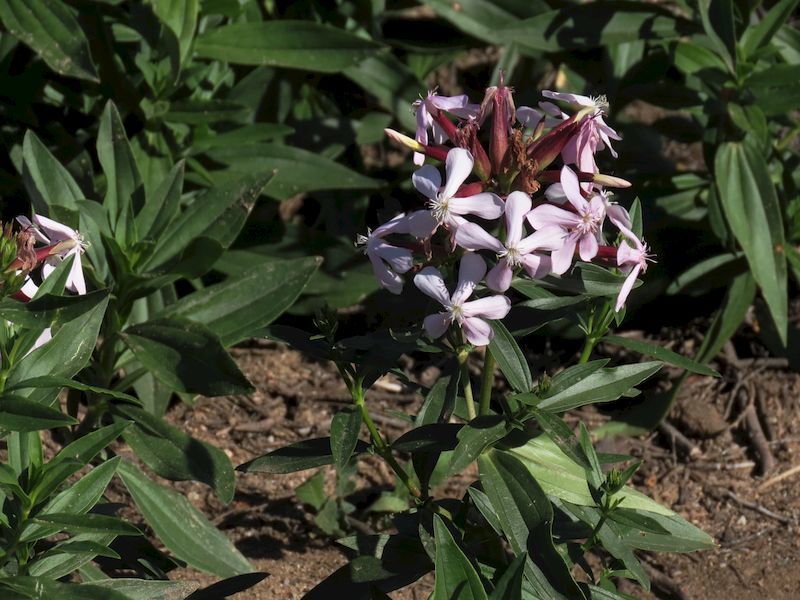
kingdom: Plantae
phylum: Tracheophyta
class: Magnoliopsida
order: Caryophyllales
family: Caryophyllaceae
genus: Saponaria
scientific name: Saponaria officinalis
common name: Soapwort
